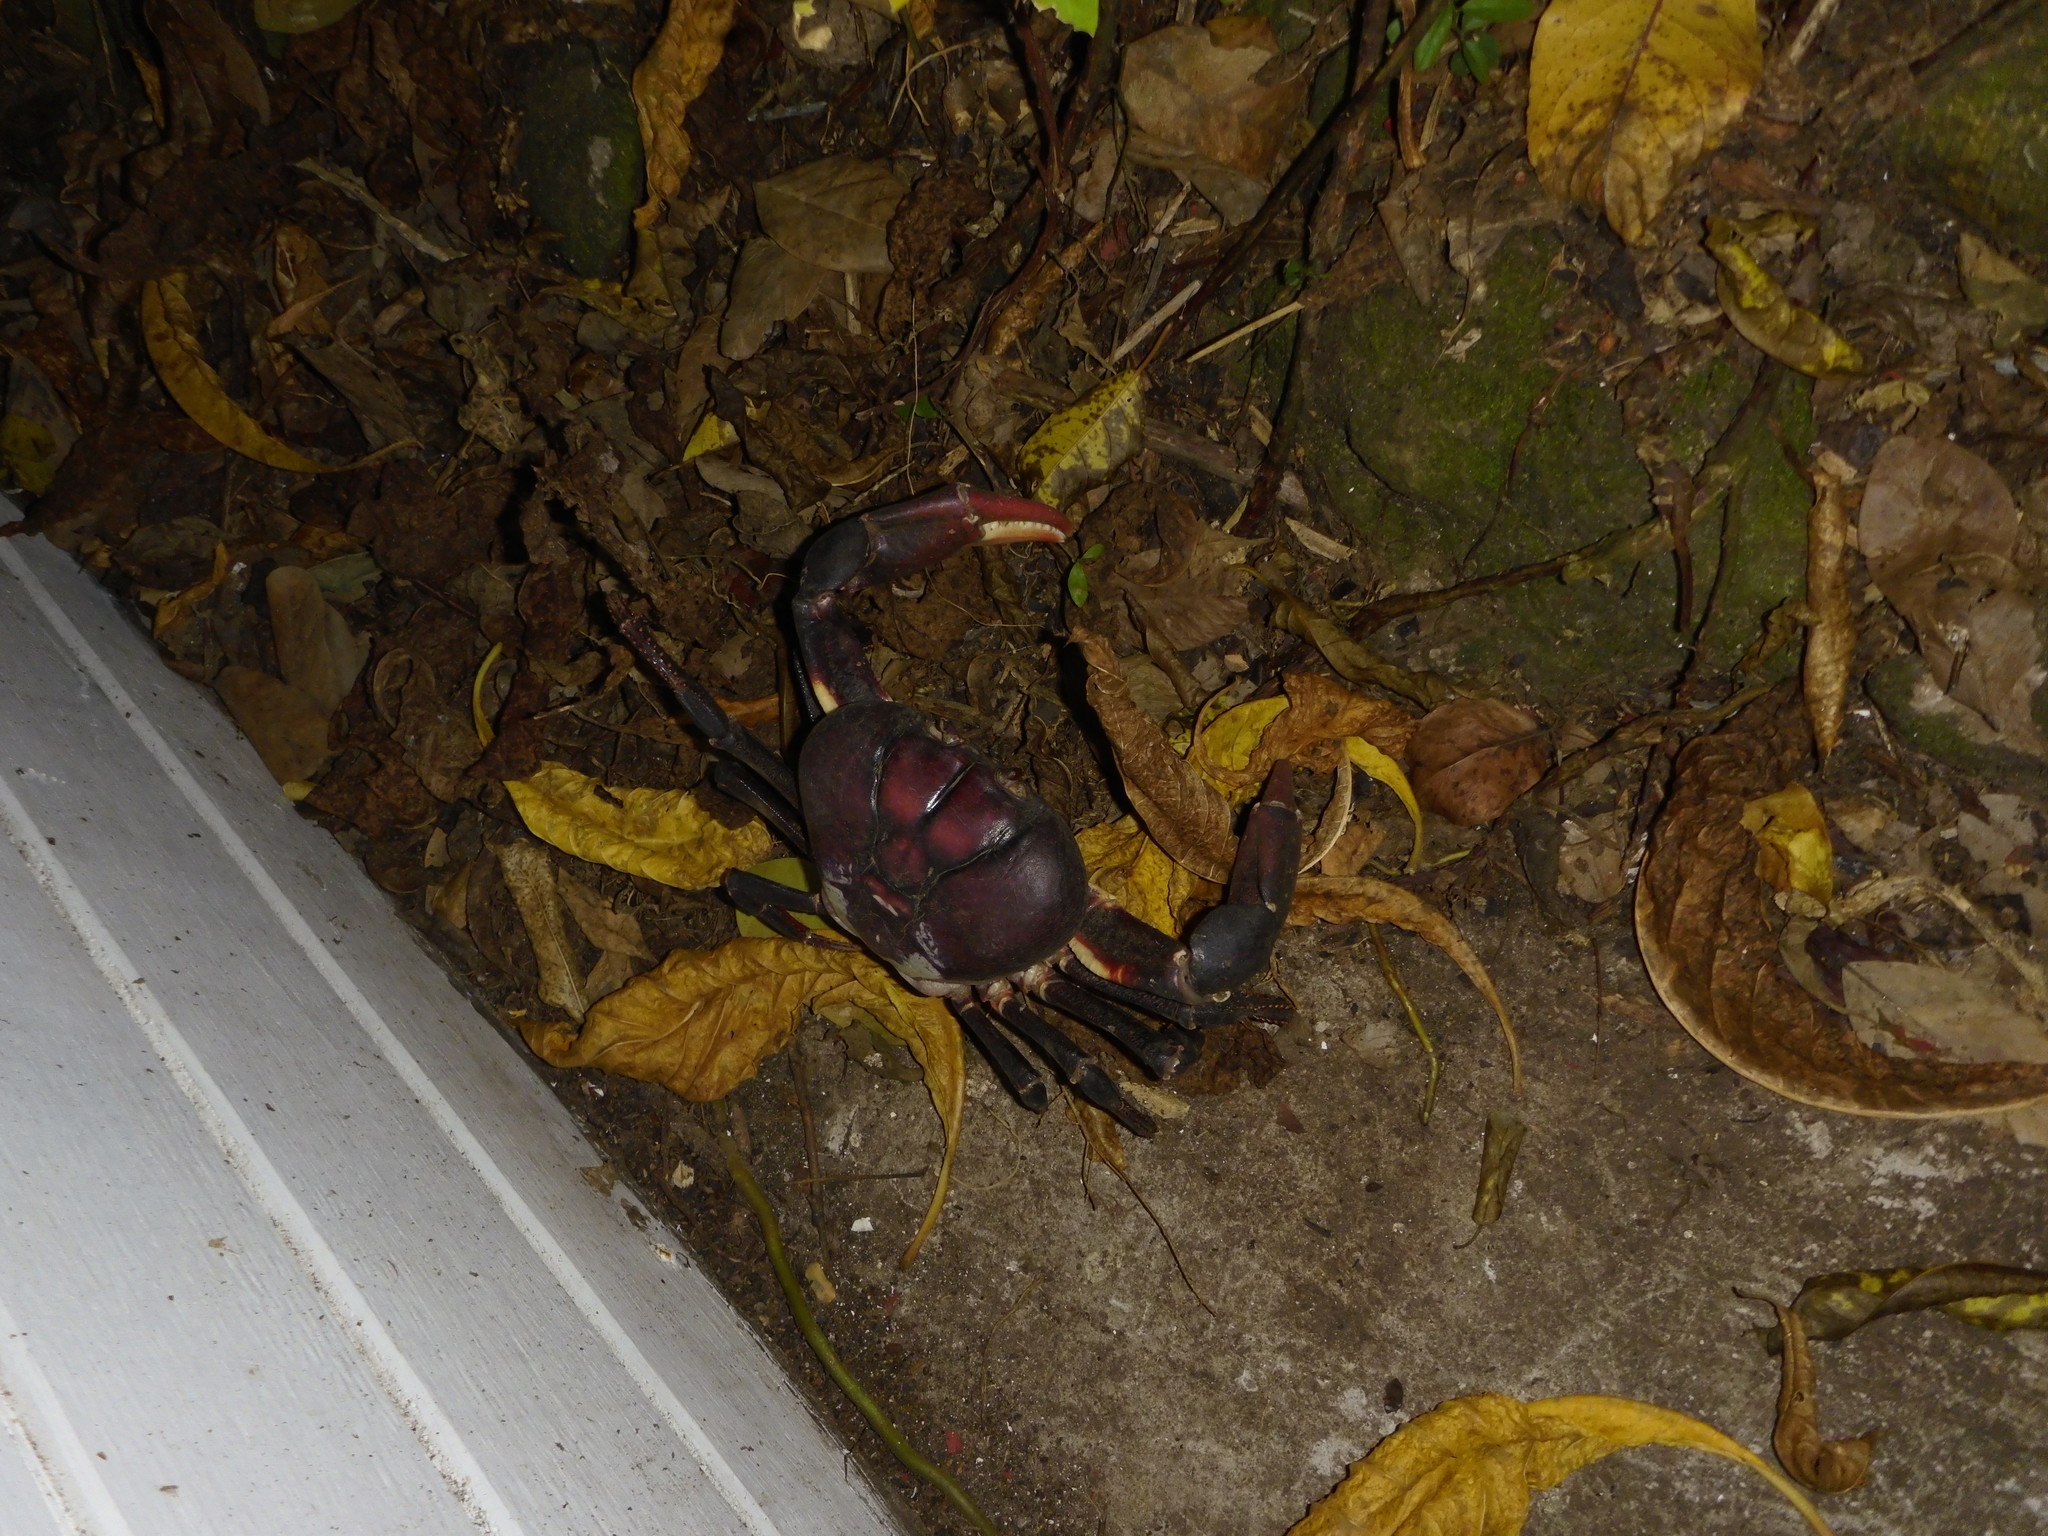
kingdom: Animalia
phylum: Arthropoda
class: Malacostraca
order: Decapoda
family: Gecarcinidae
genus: Gecarcinus
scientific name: Gecarcinus ruricola
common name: Black land crab
